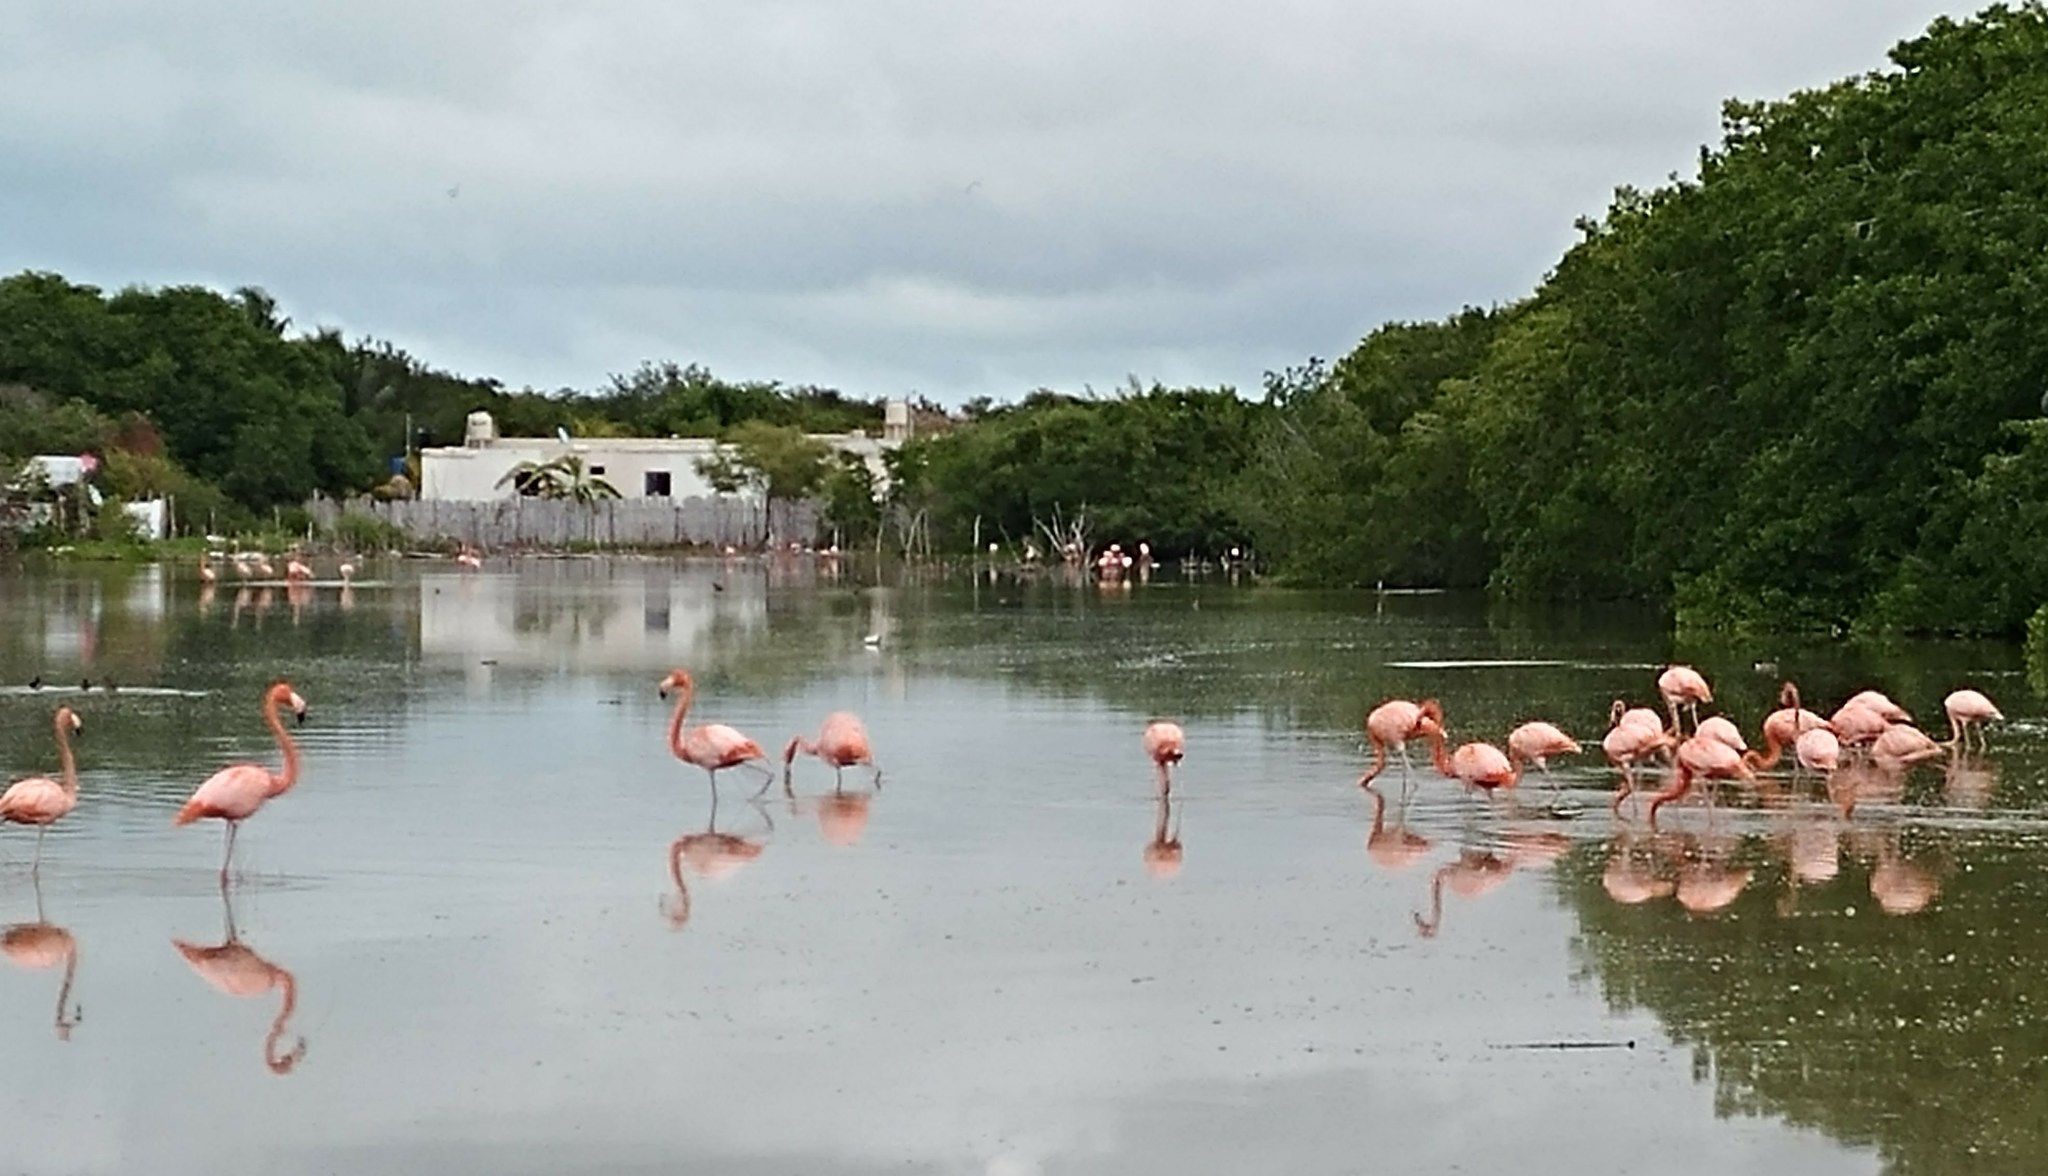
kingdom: Animalia
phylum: Chordata
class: Aves
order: Phoenicopteriformes
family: Phoenicopteridae
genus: Phoenicopterus
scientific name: Phoenicopterus ruber
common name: American flamingo
